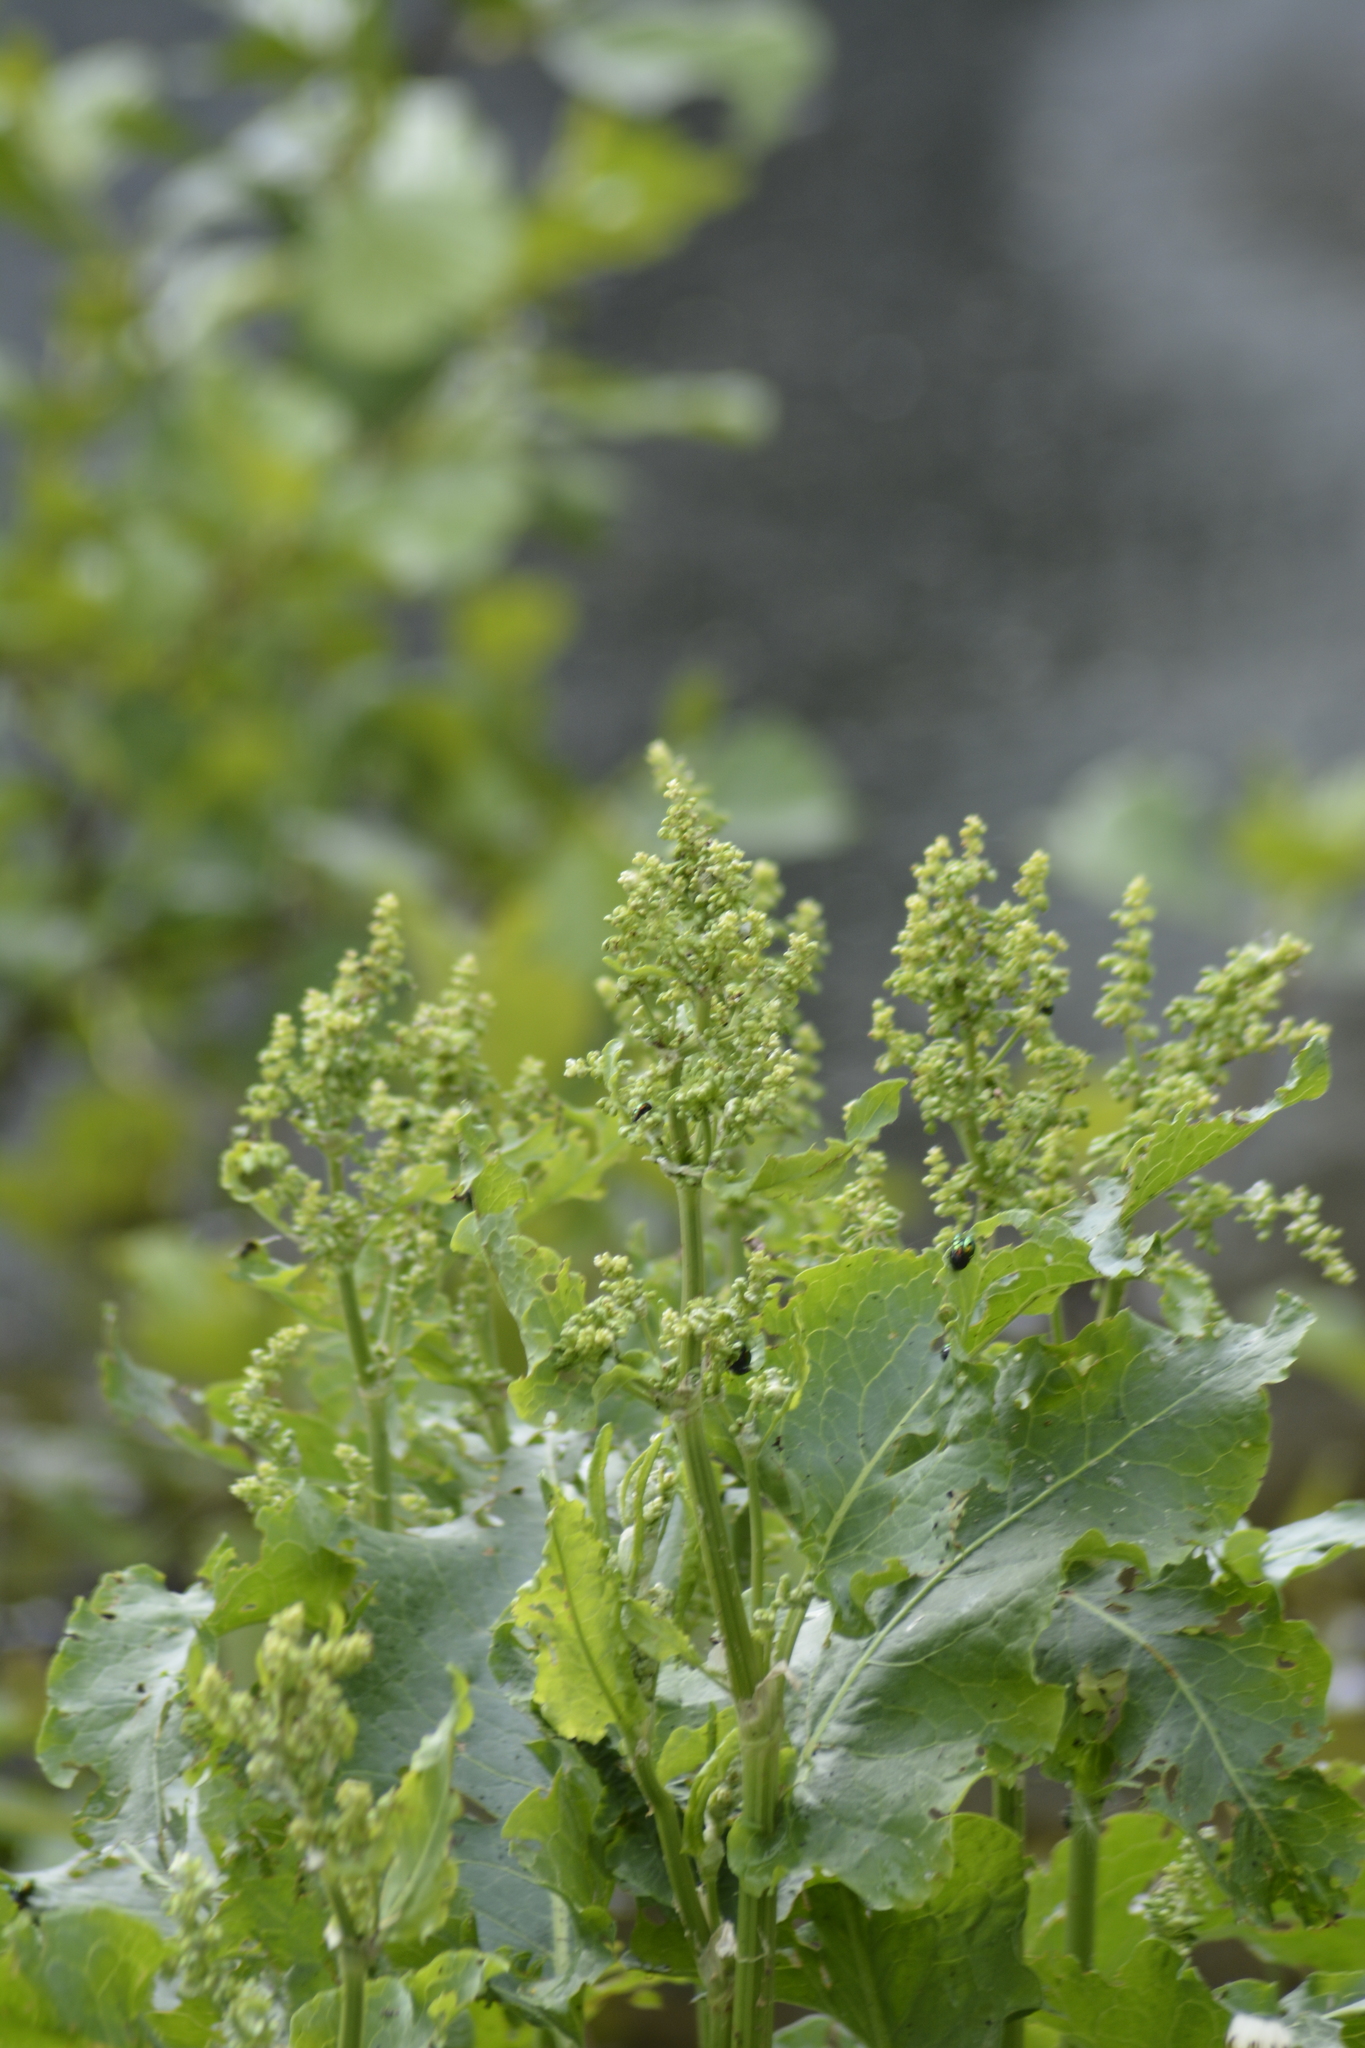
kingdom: Plantae
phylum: Tracheophyta
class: Magnoliopsida
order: Caryophyllales
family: Polygonaceae
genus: Rumex
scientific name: Rumex confertus
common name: Russian dock
